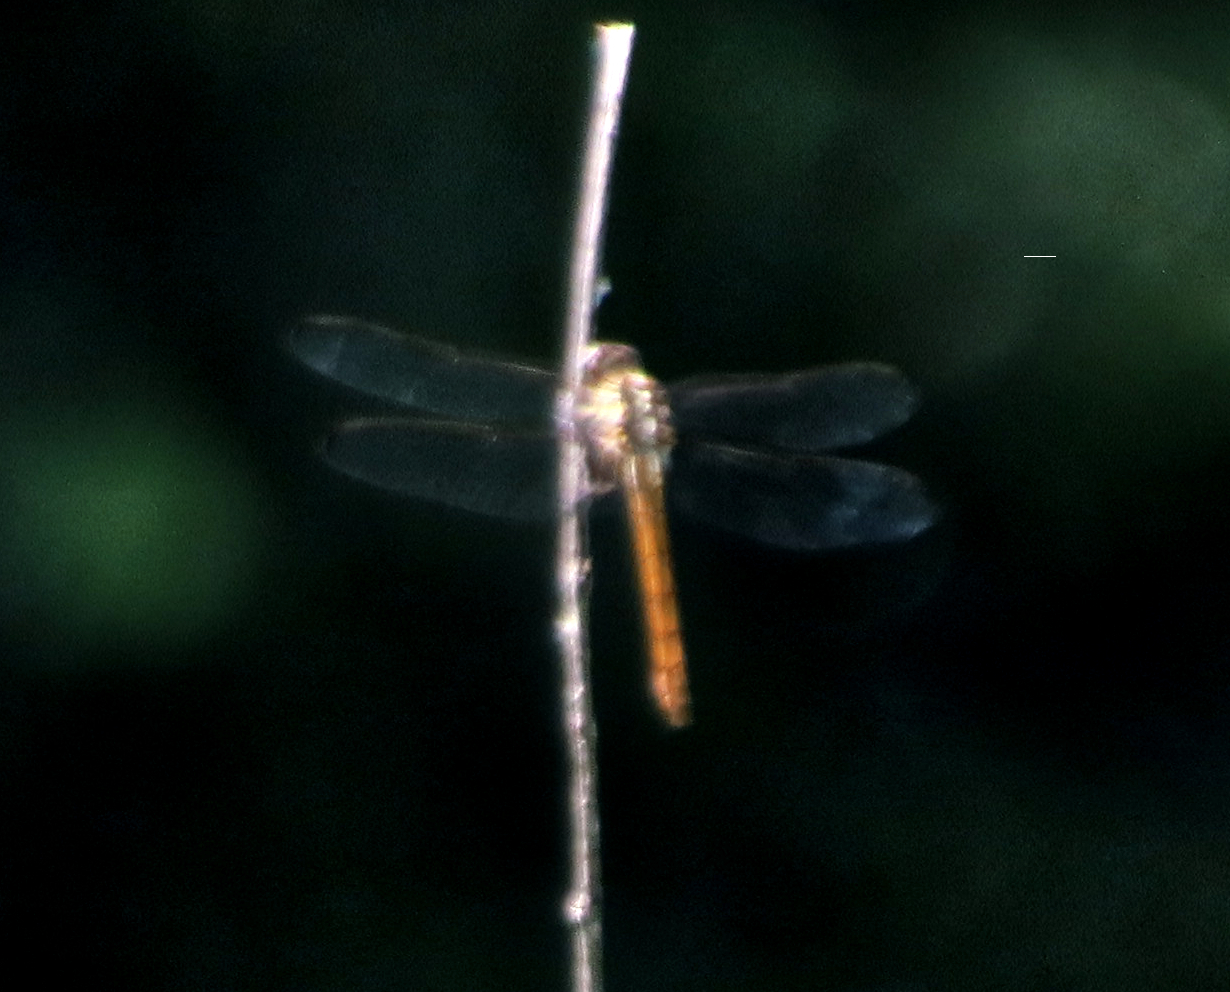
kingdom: Animalia
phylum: Arthropoda
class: Insecta
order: Odonata
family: Libellulidae
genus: Orthemis
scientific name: Orthemis ferruginea
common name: Roseate skimmer
